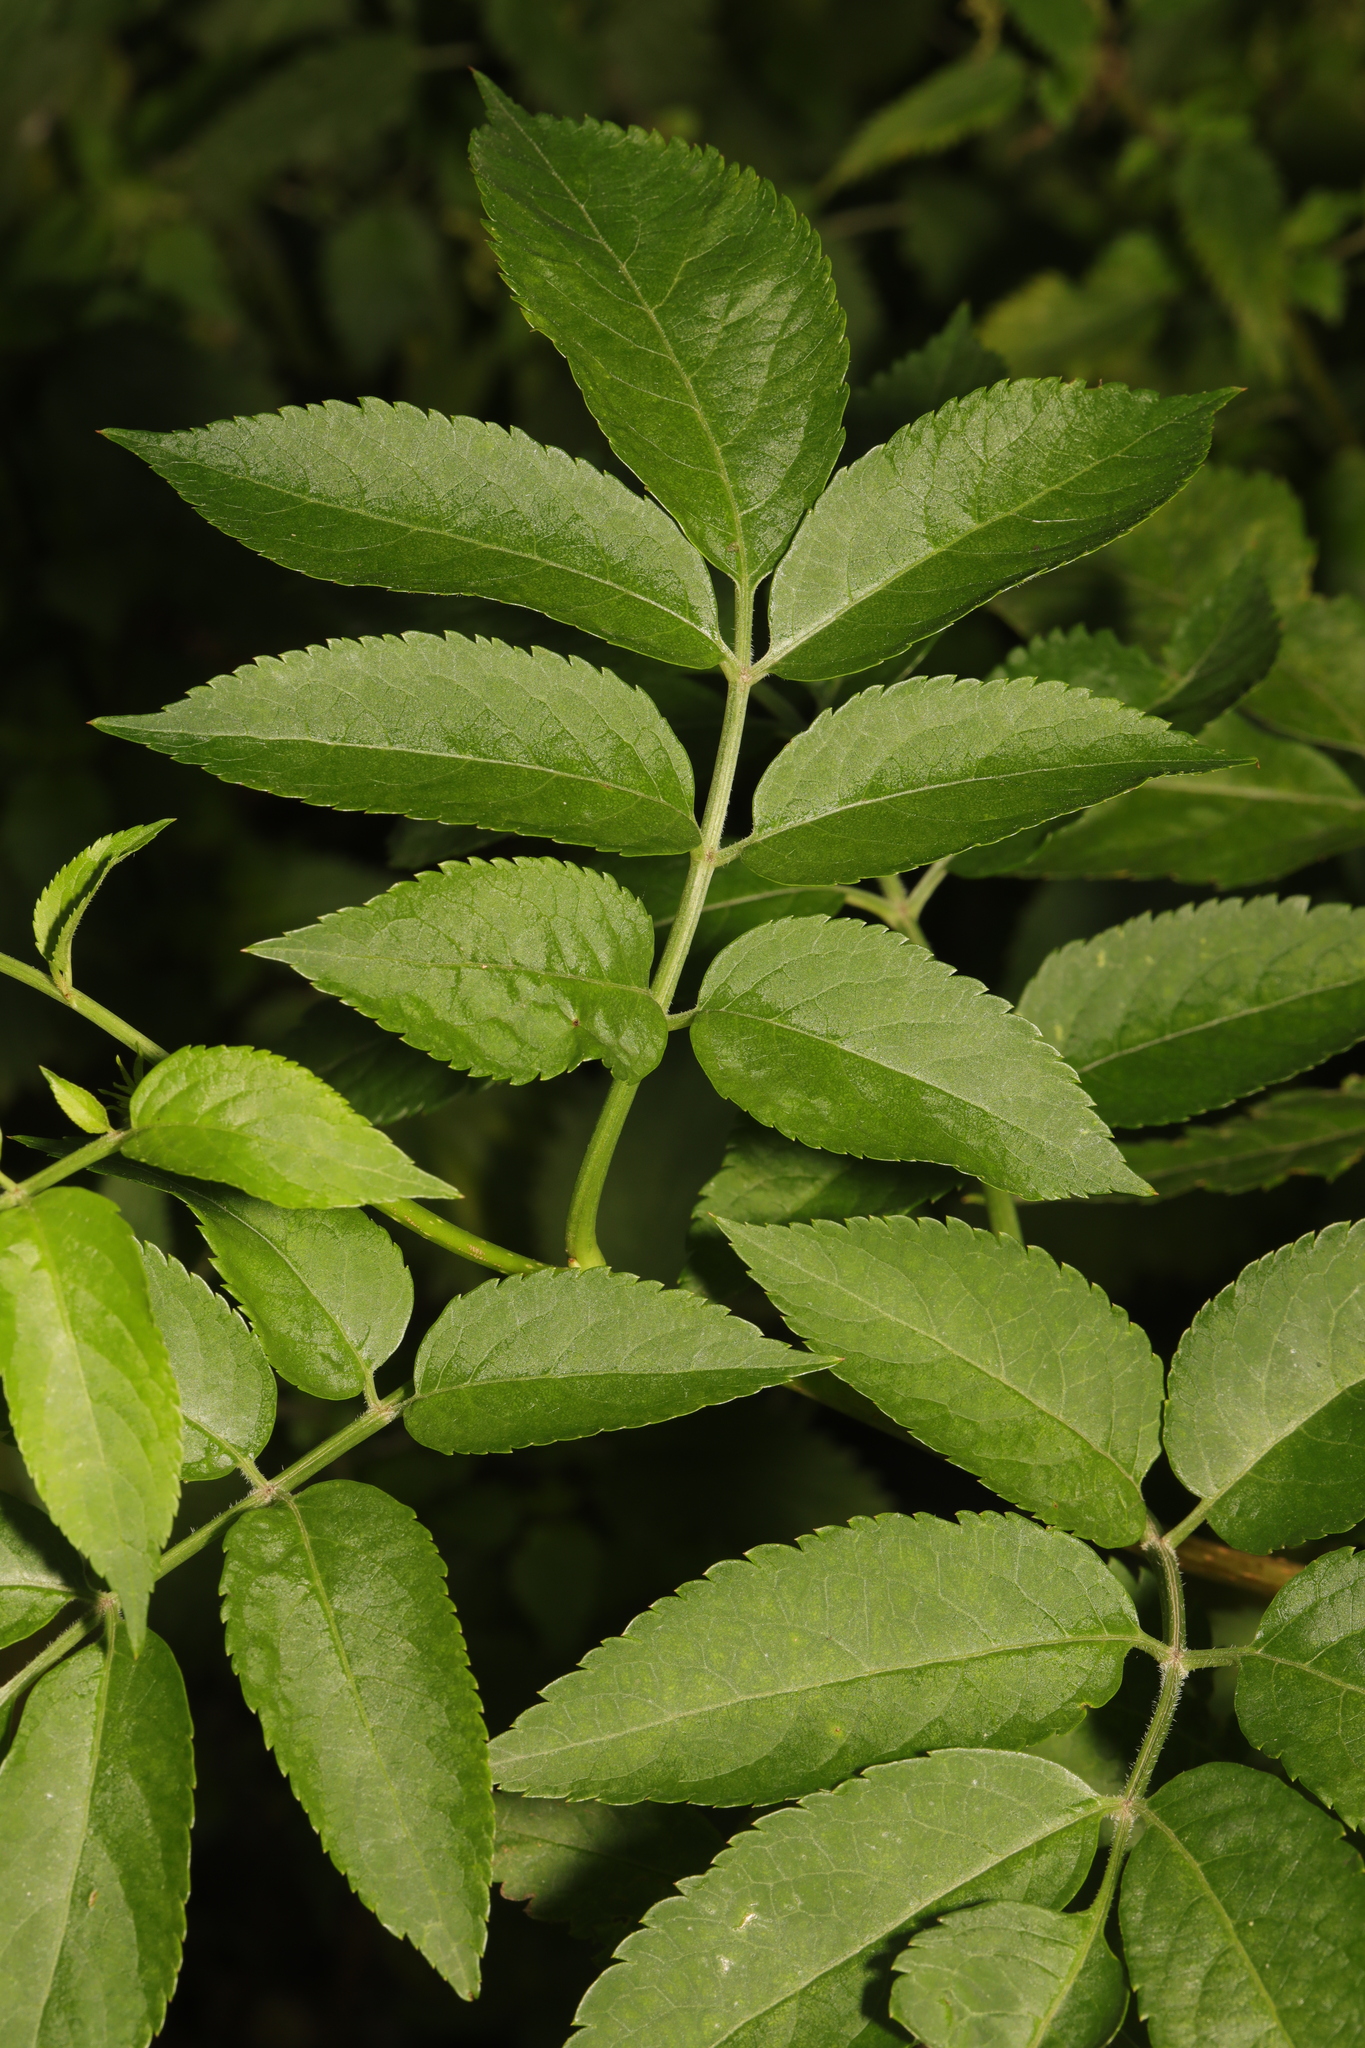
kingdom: Plantae
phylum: Tracheophyta
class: Magnoliopsida
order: Dipsacales
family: Viburnaceae
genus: Sambucus
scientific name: Sambucus nigra
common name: Elder
